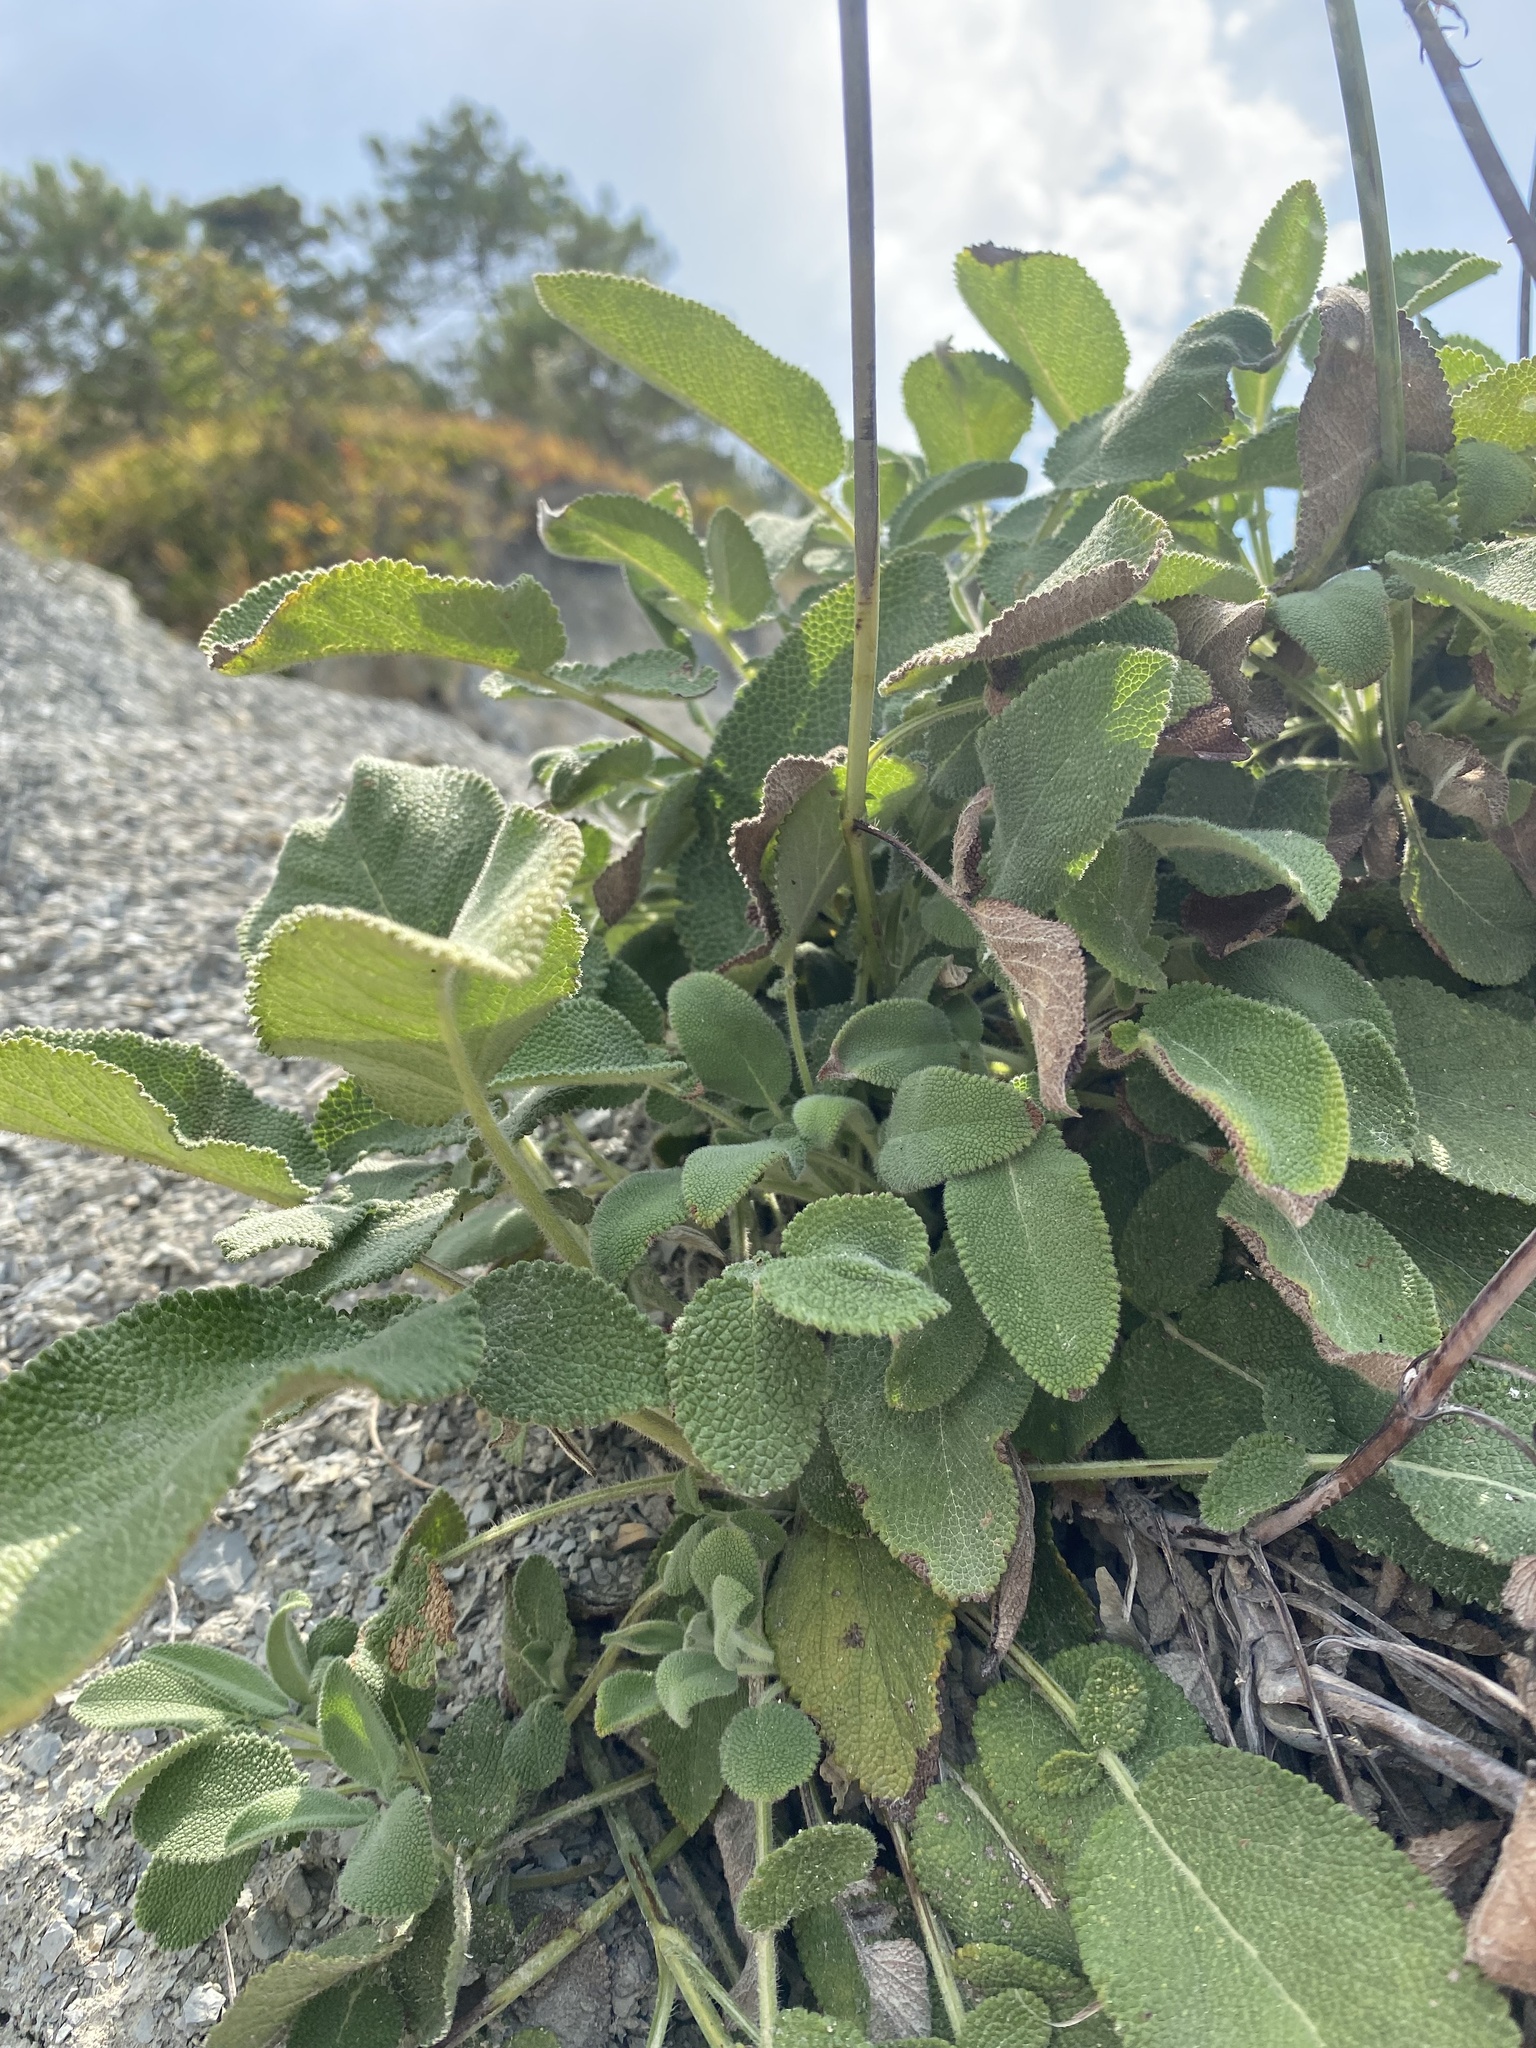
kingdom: Plantae
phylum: Tracheophyta
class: Magnoliopsida
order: Lamiales
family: Lamiaceae
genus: Salvia
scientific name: Salvia ringens
